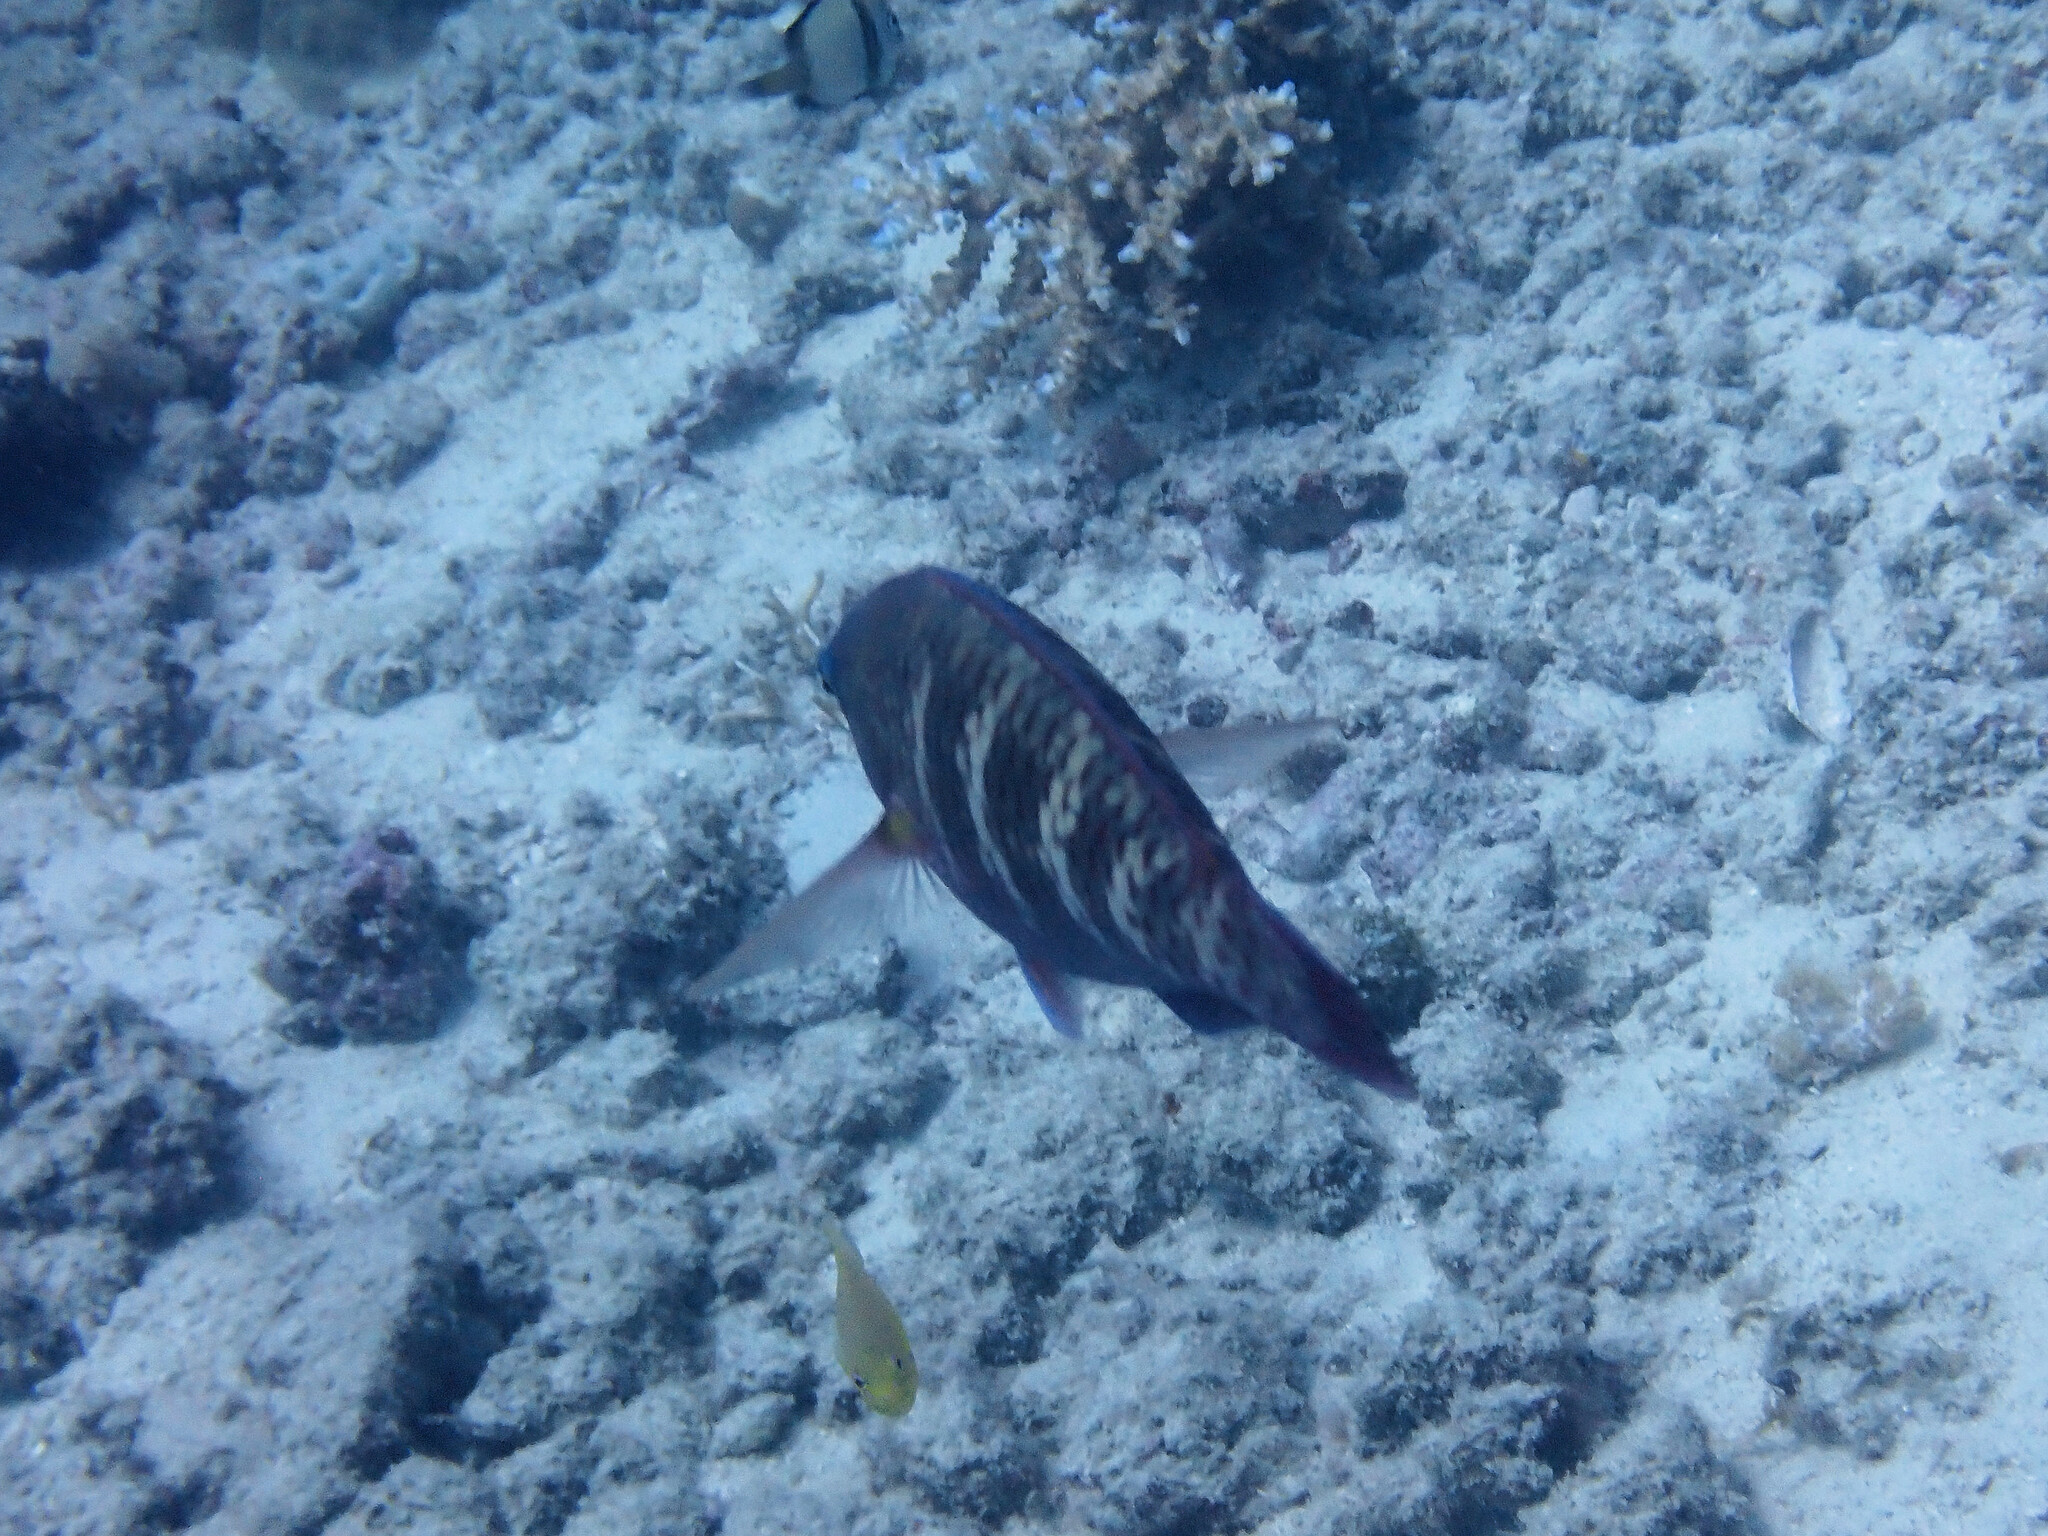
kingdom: Animalia
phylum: Chordata
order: Perciformes
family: Scaridae
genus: Scarus
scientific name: Scarus schlegeli
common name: Schlegel's parrotfish
